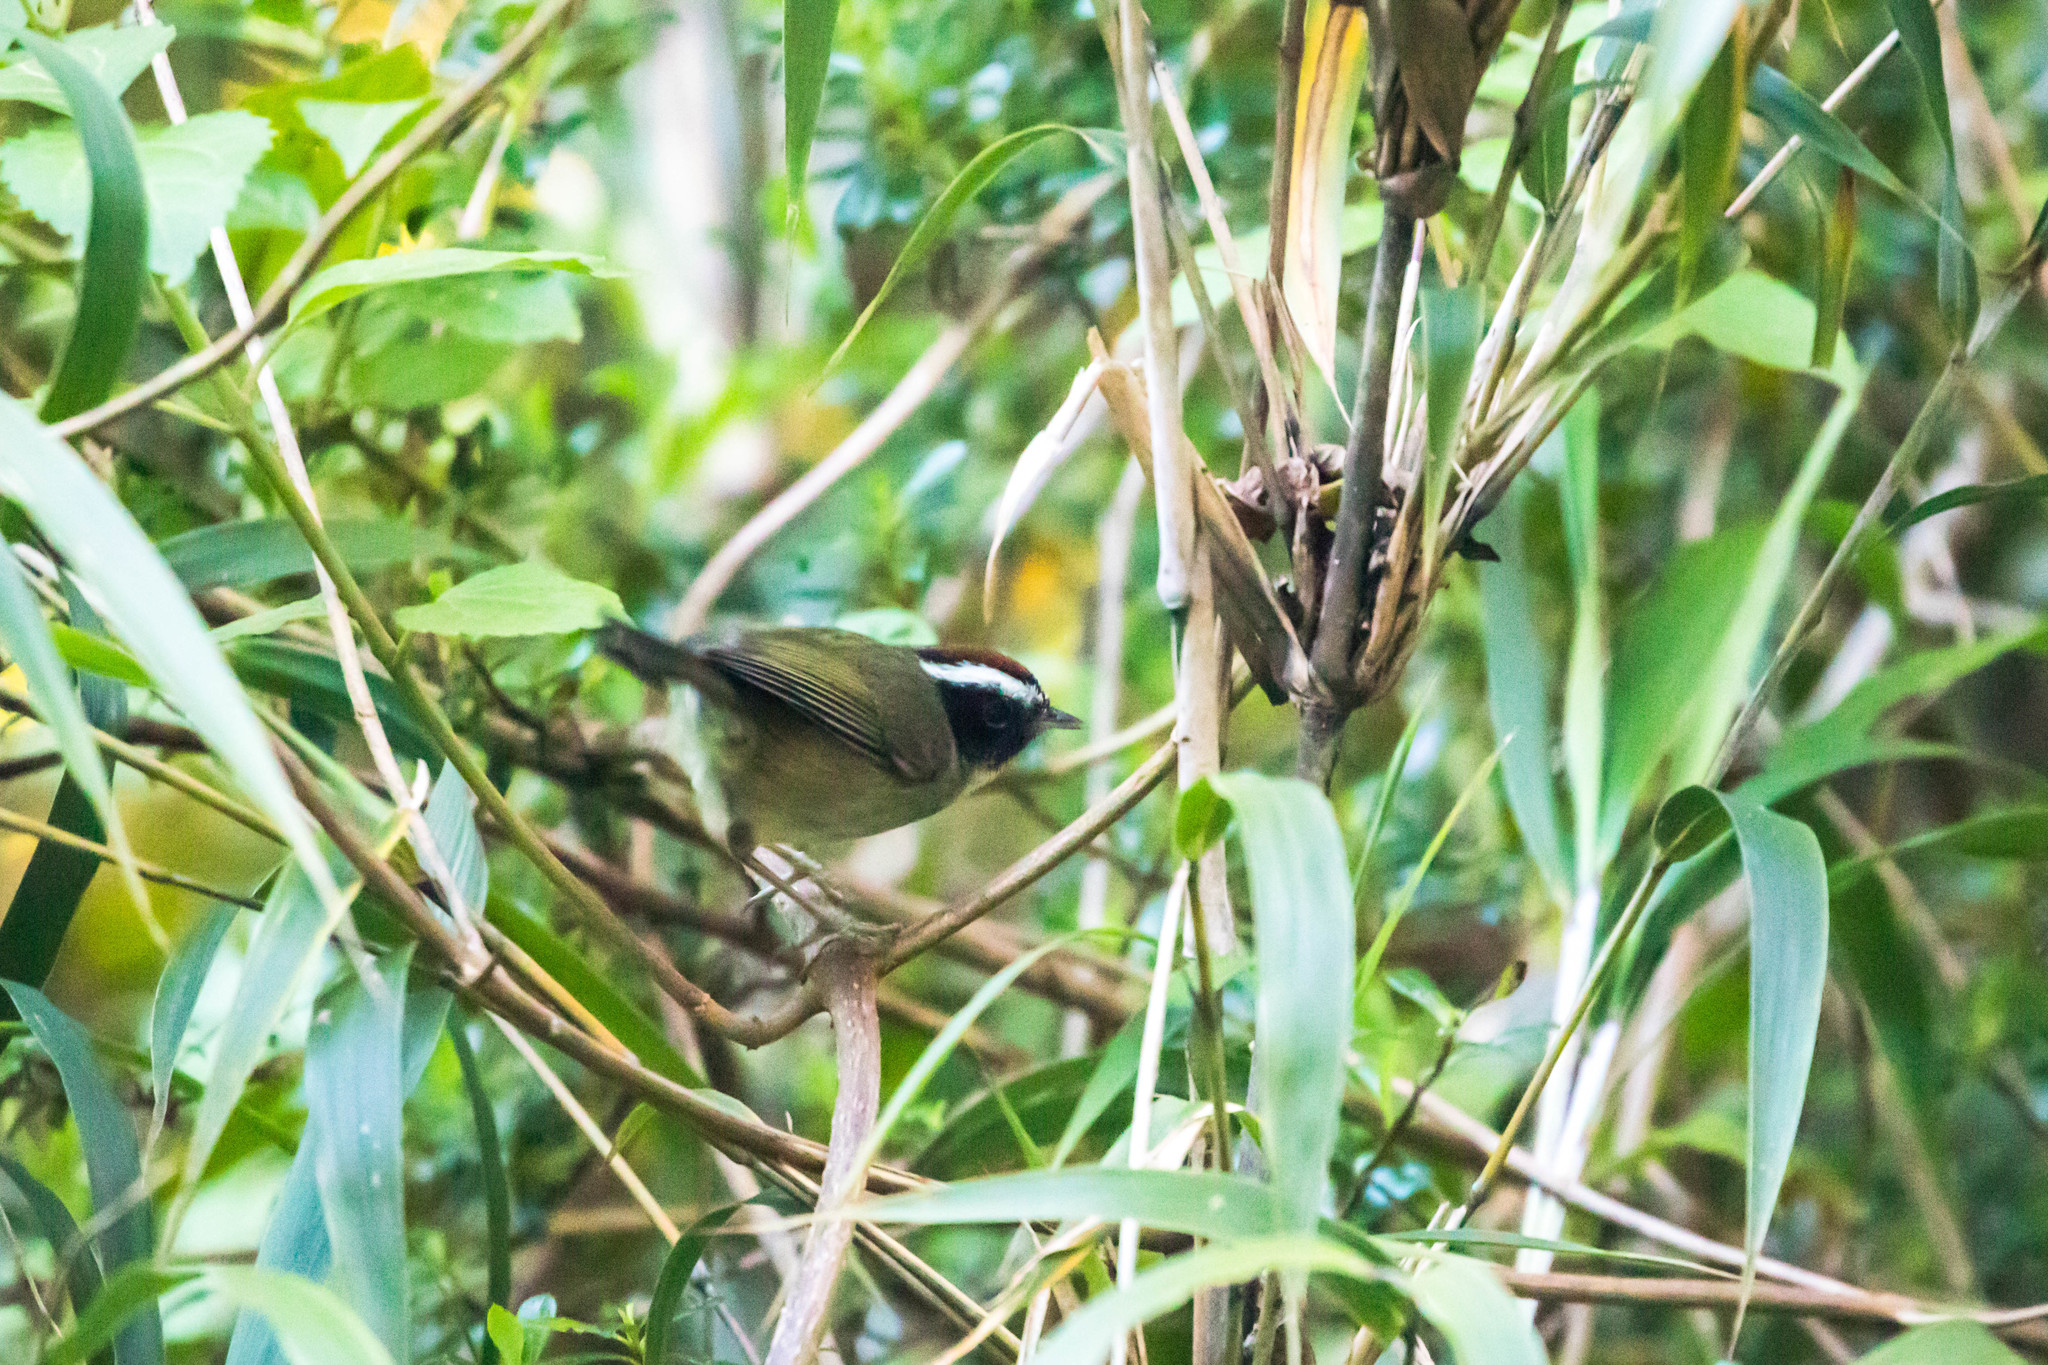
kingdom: Animalia
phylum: Chordata
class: Aves
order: Passeriformes
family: Parulidae
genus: Basileuterus
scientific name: Basileuterus melanogenys
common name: Black-cheeked warbler
